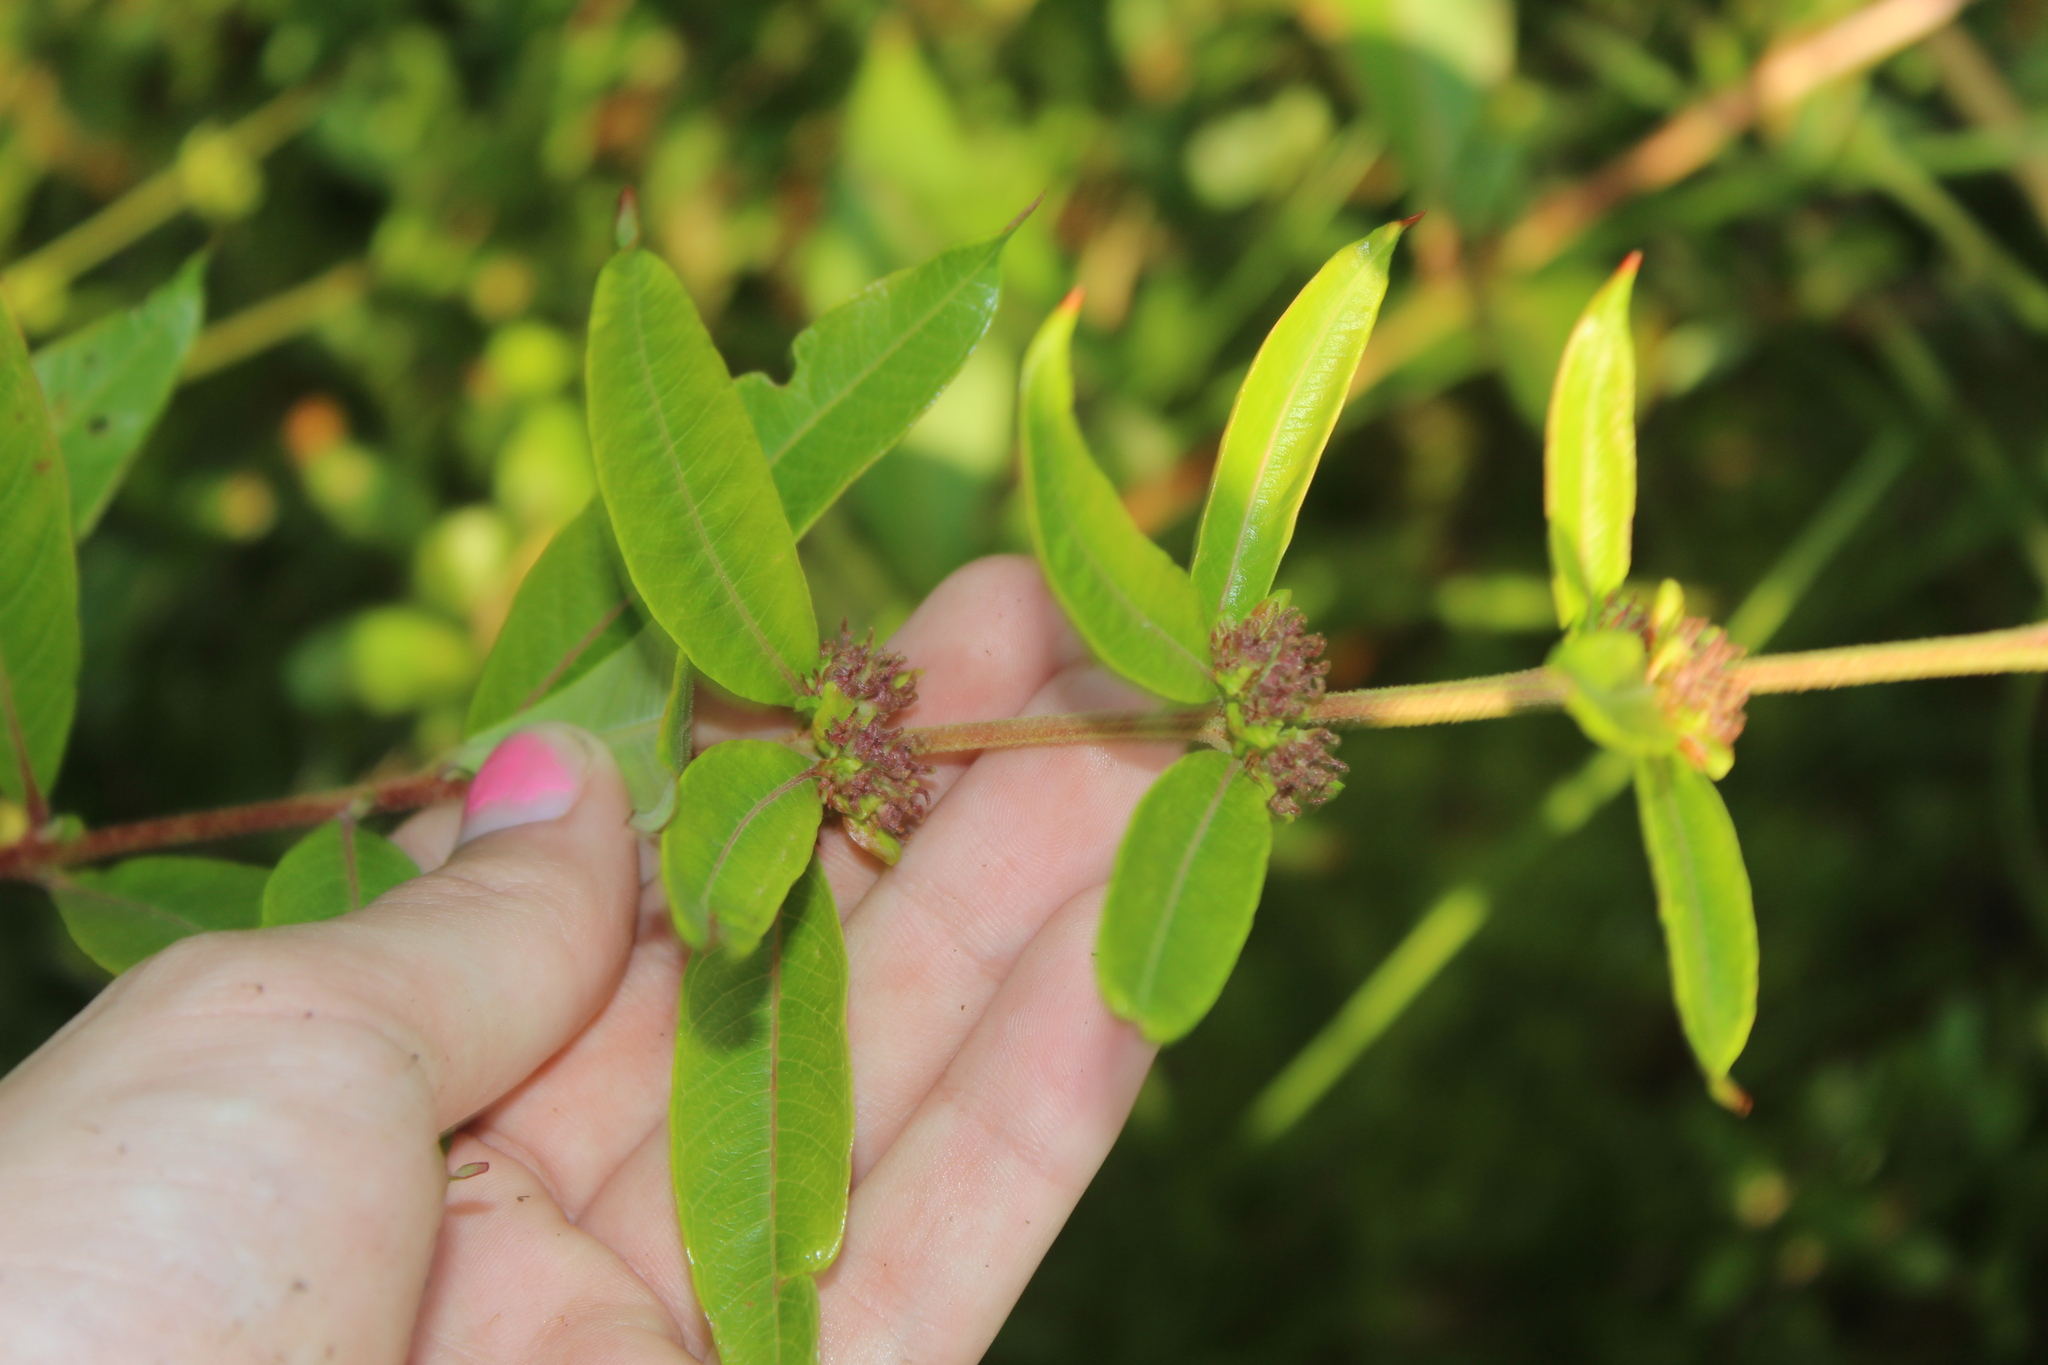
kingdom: Plantae
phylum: Tracheophyta
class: Magnoliopsida
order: Myrtales
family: Lythraceae
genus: Decodon
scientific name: Decodon verticillatus
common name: Hairy swamp loosestrife
